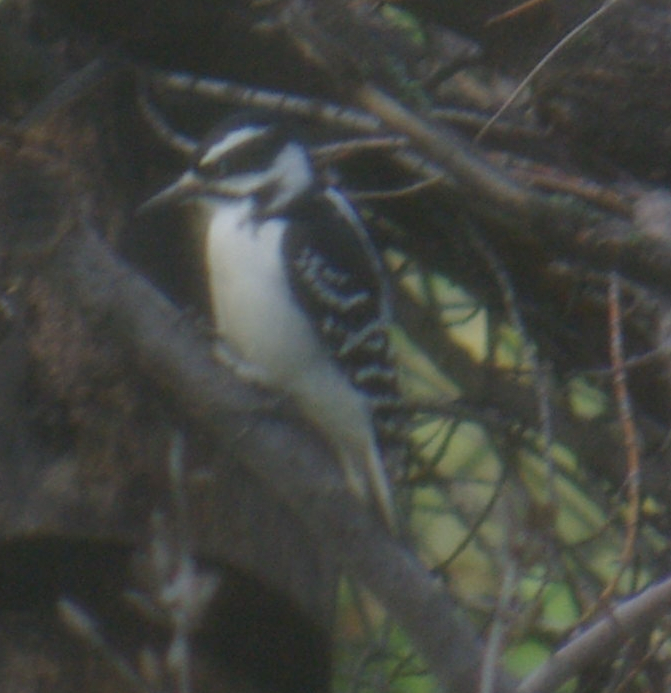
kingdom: Animalia
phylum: Chordata
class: Aves
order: Piciformes
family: Picidae
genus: Leuconotopicus
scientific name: Leuconotopicus villosus
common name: Hairy woodpecker
